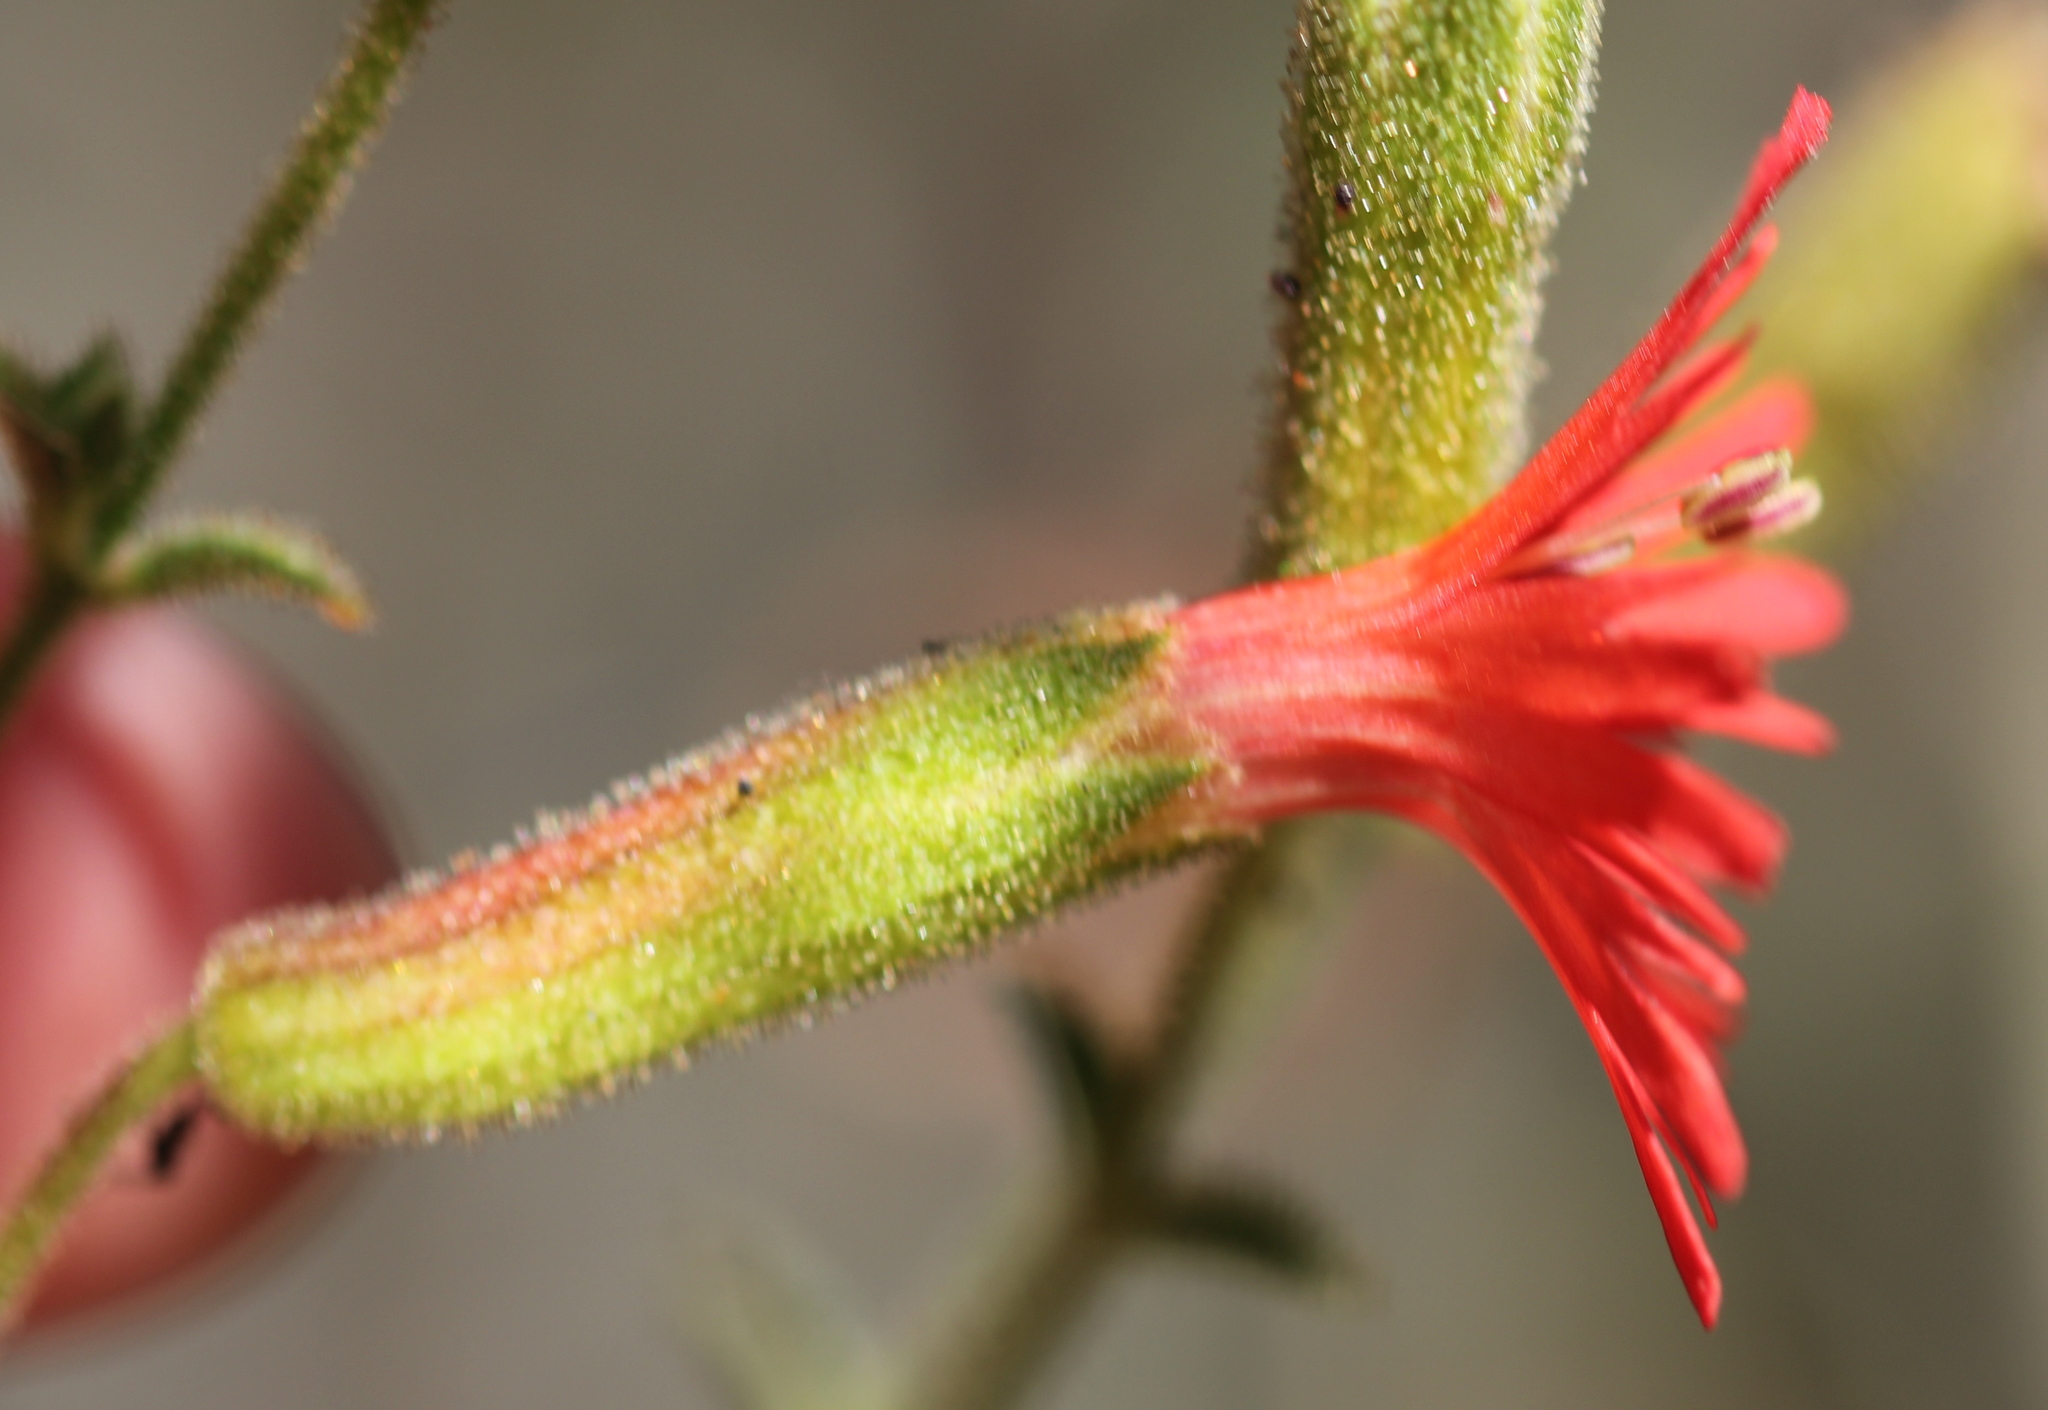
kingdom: Plantae
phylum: Tracheophyta
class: Magnoliopsida
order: Caryophyllales
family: Caryophyllaceae
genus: Silene
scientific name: Silene laciniata
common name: Indian-pink
